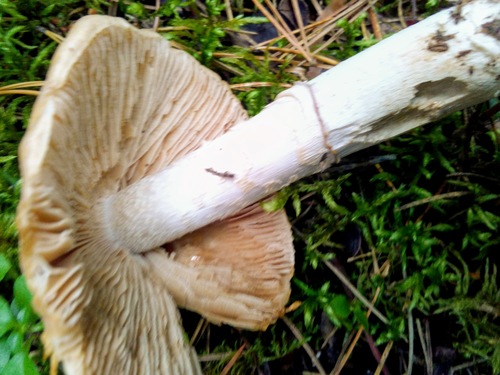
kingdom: Fungi
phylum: Basidiomycota
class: Agaricomycetes
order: Agaricales
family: Cortinariaceae
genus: Cortinarius
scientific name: Cortinarius caperatus
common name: The gypsy
